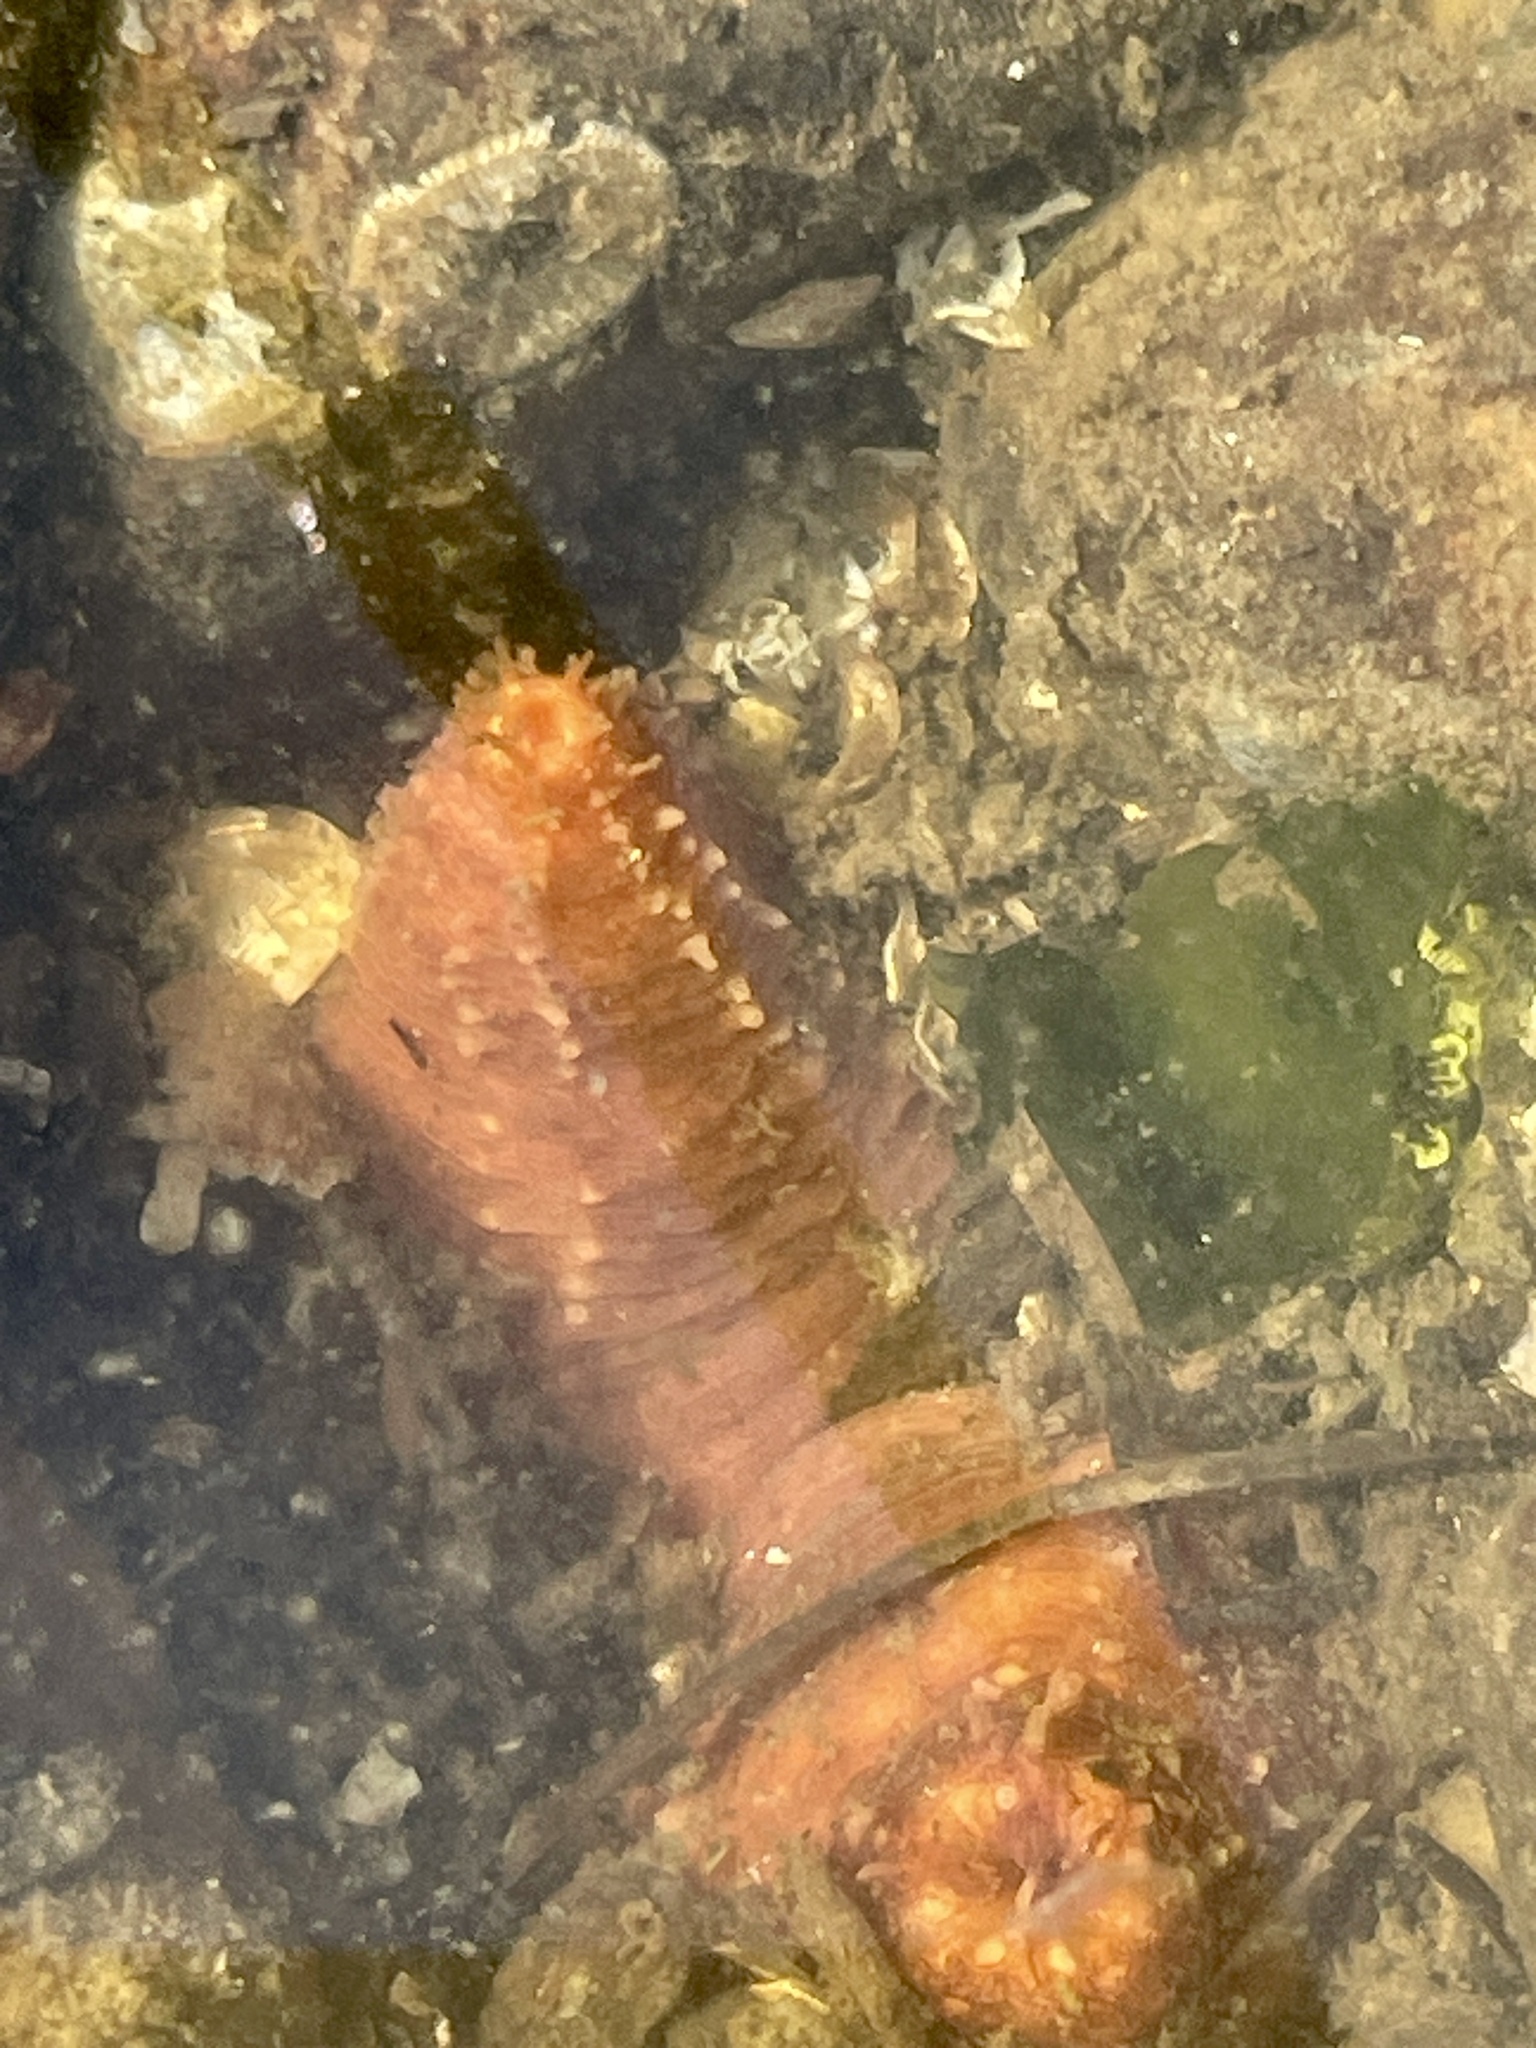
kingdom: Animalia
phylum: Echinodermata
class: Holothuroidea
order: Dendrochirotida
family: Cucumariidae
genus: Cucumaria
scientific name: Cucumaria miniata
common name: Orange sea cucumber
